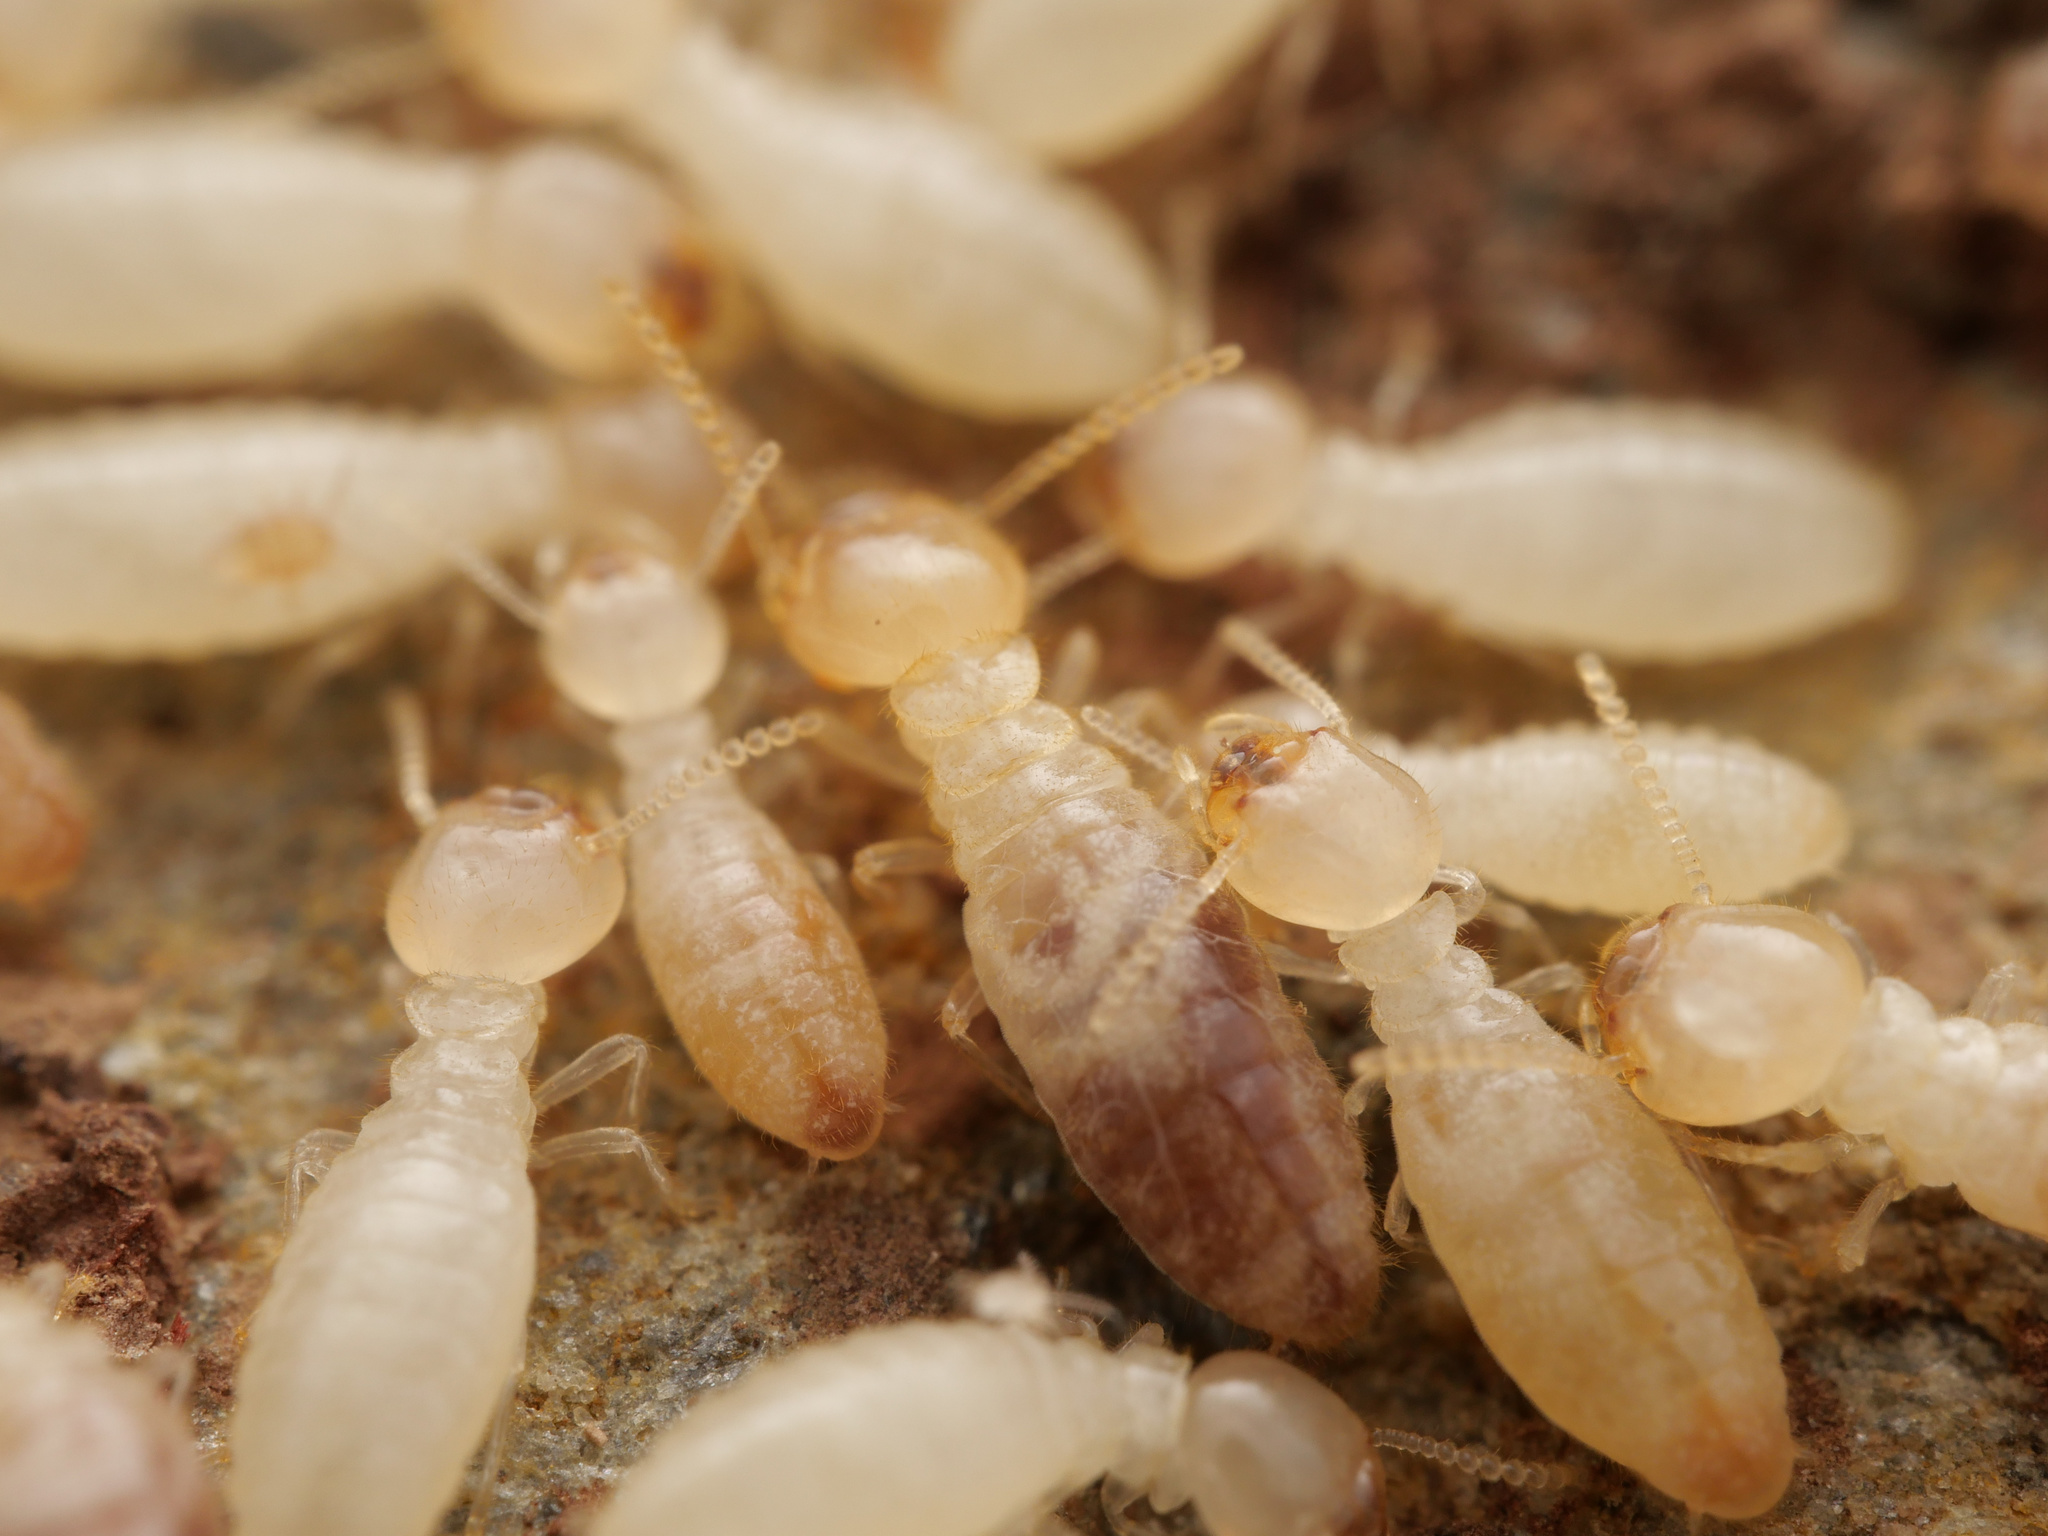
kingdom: Animalia
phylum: Arthropoda
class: Insecta
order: Blattodea
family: Rhinotermitidae
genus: Reticulitermes
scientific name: Reticulitermes
